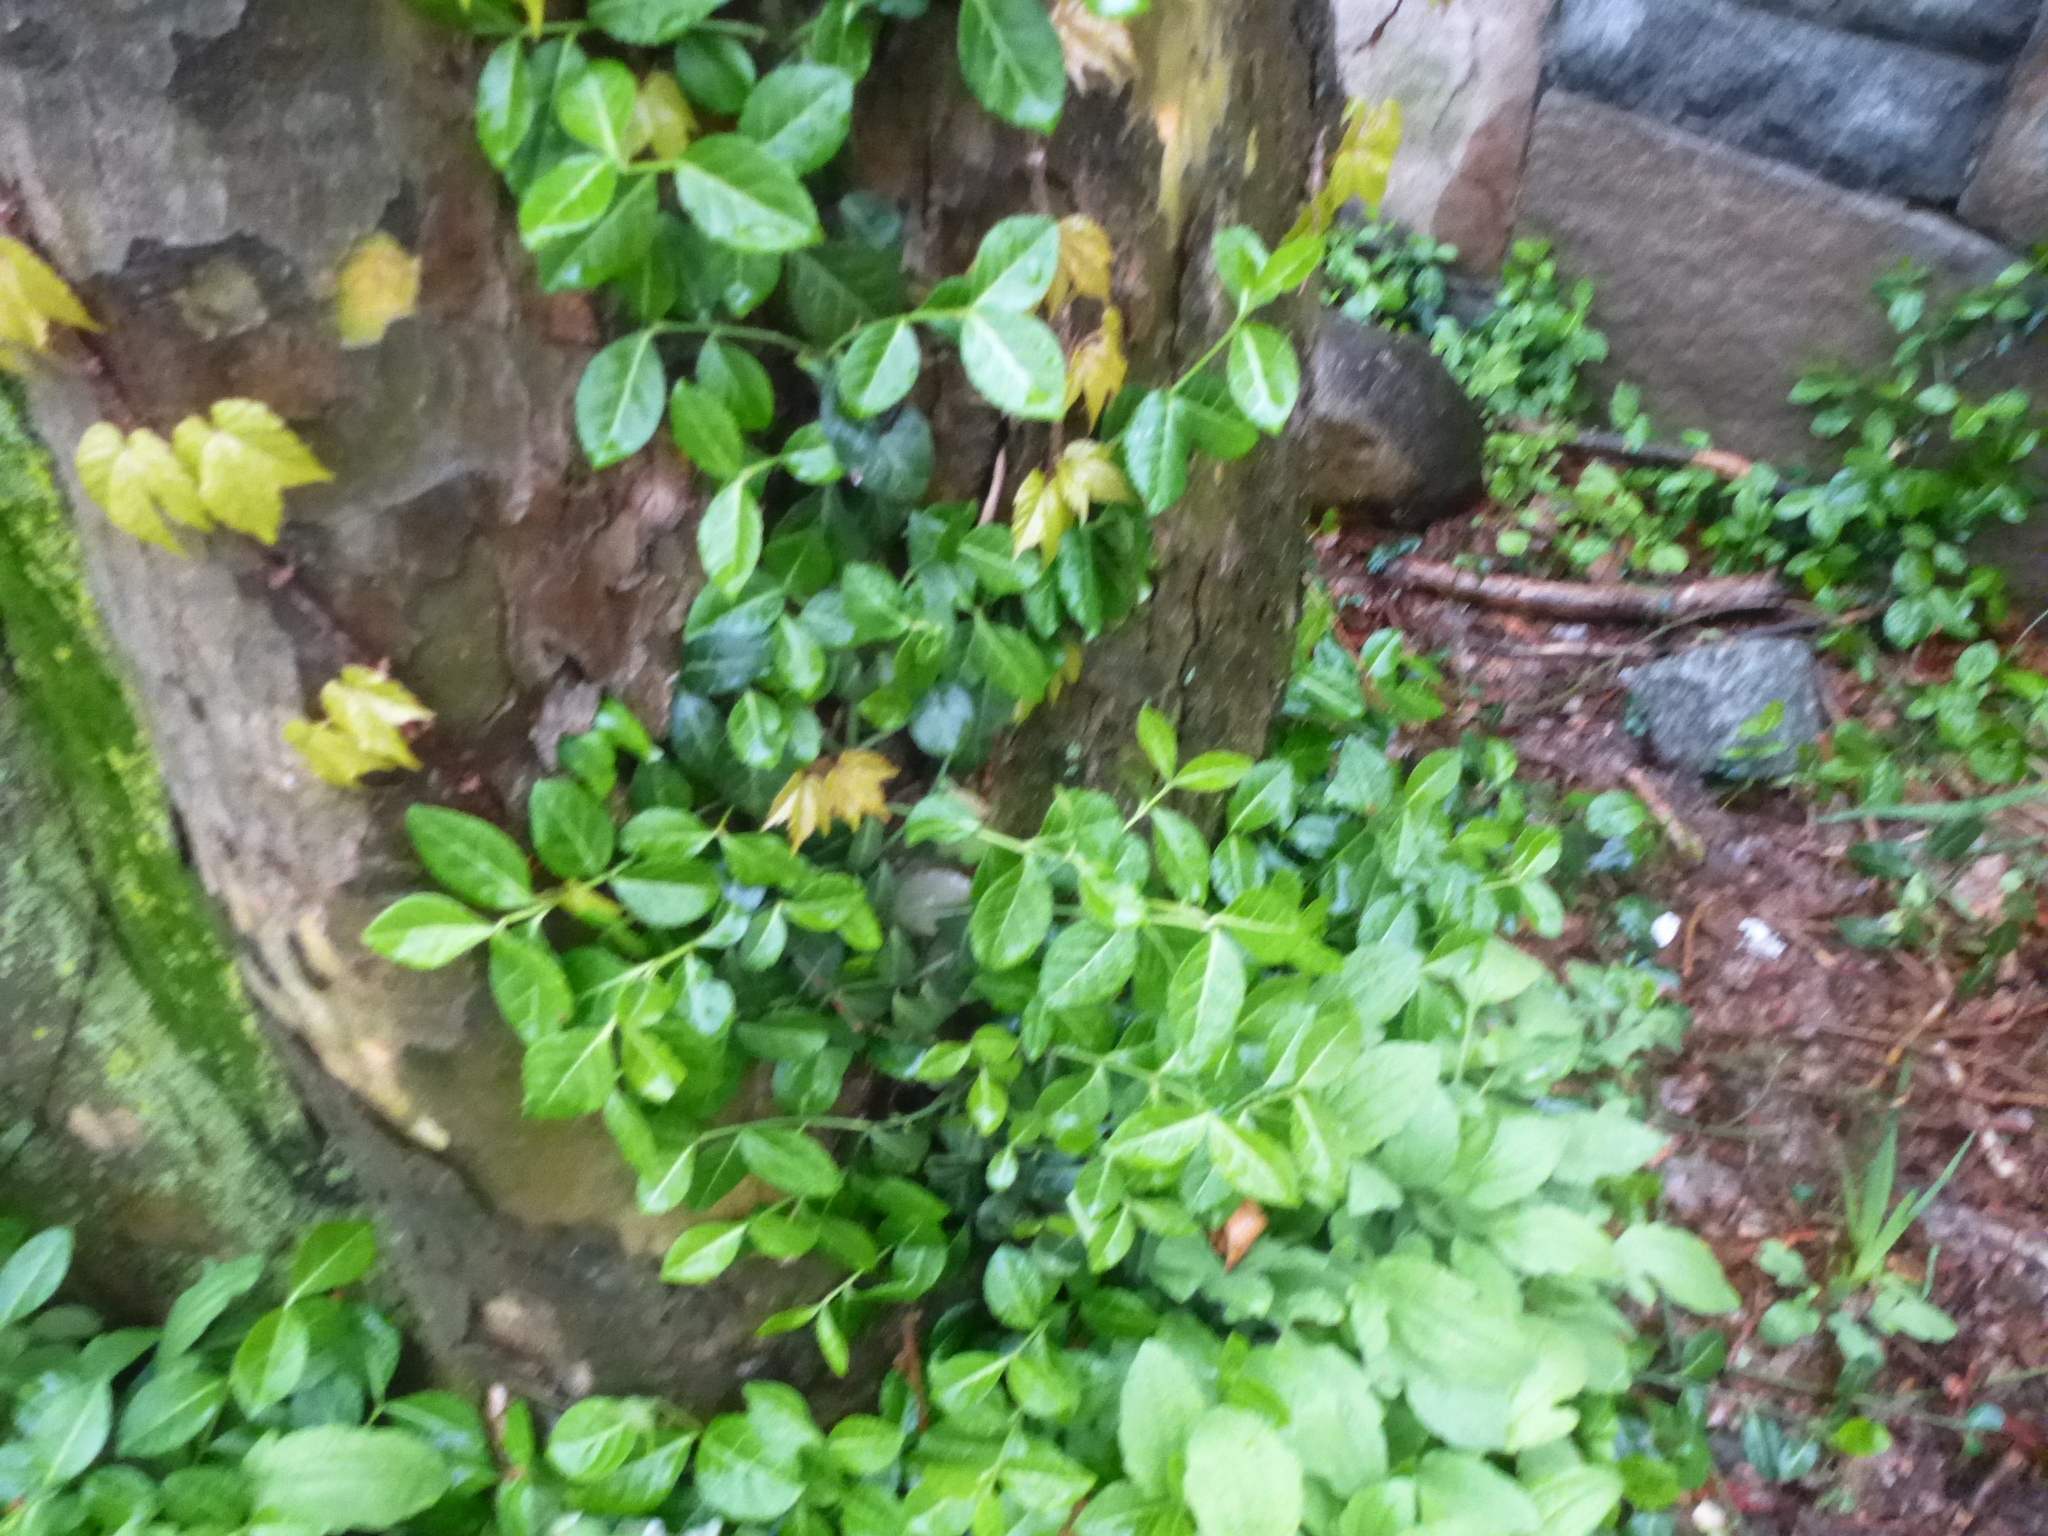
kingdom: Plantae
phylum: Tracheophyta
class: Magnoliopsida
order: Celastrales
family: Celastraceae
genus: Euonymus
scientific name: Euonymus fortunei
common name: Climbing euonymus
